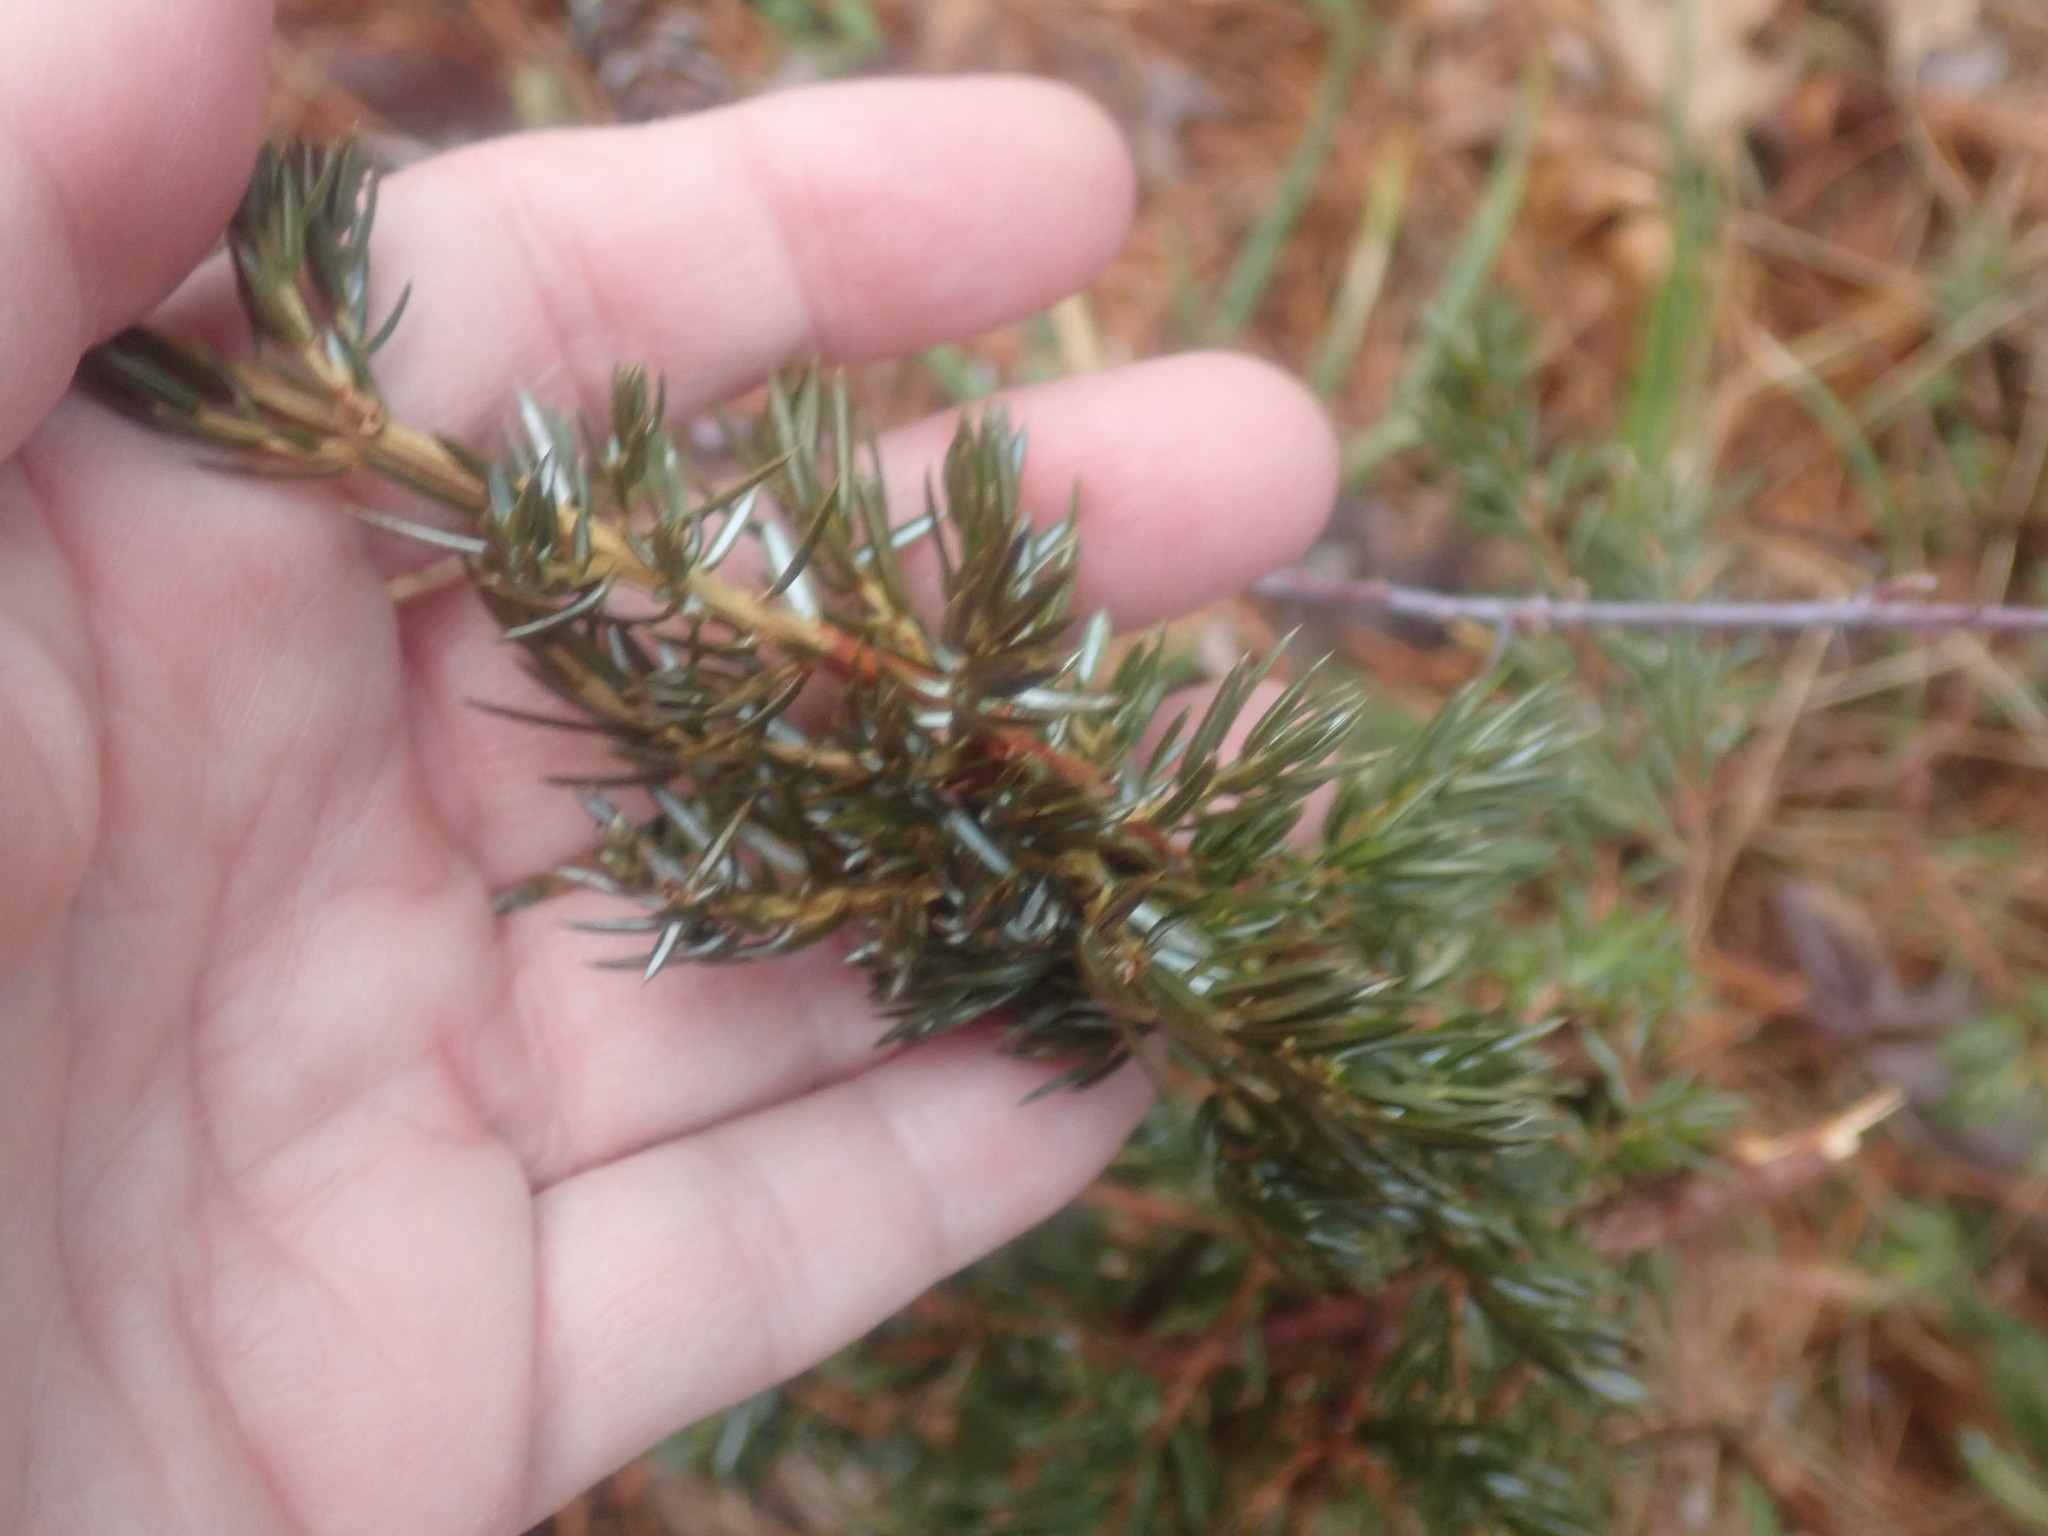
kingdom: Plantae
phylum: Tracheophyta
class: Pinopsida
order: Pinales
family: Cupressaceae
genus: Juniperus
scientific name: Juniperus communis
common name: Common juniper
